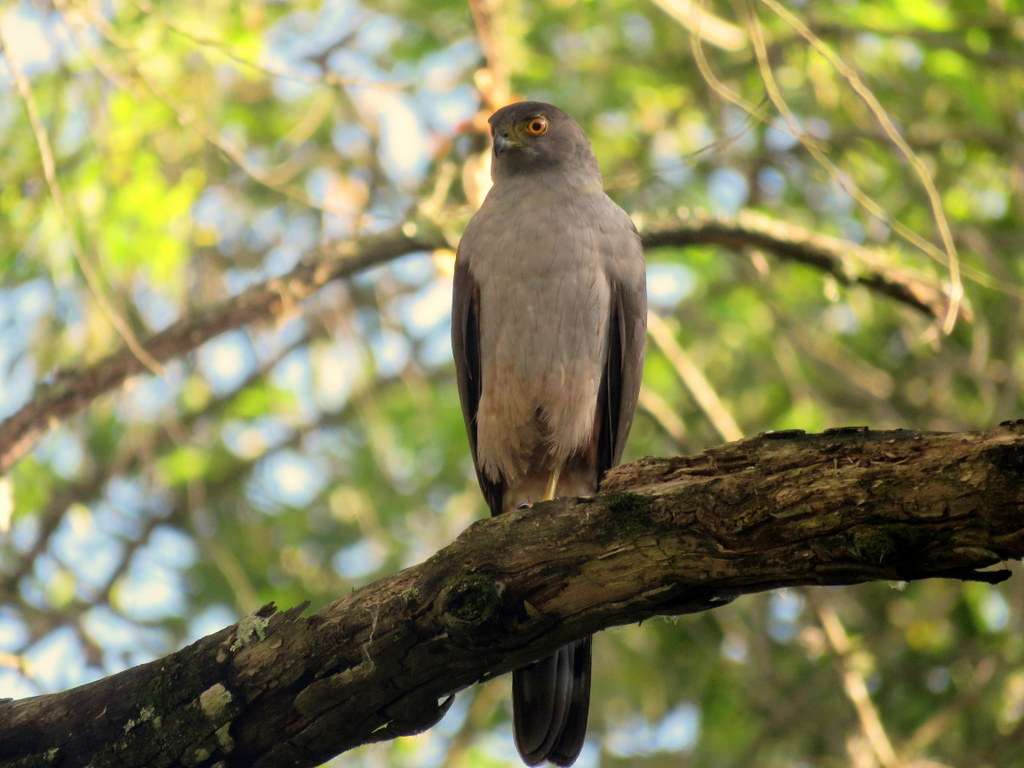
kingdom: Animalia
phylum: Chordata
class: Aves
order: Accipitriformes
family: Accipitridae
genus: Accipiter
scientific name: Accipiter bicolor
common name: Bicolored hawk
